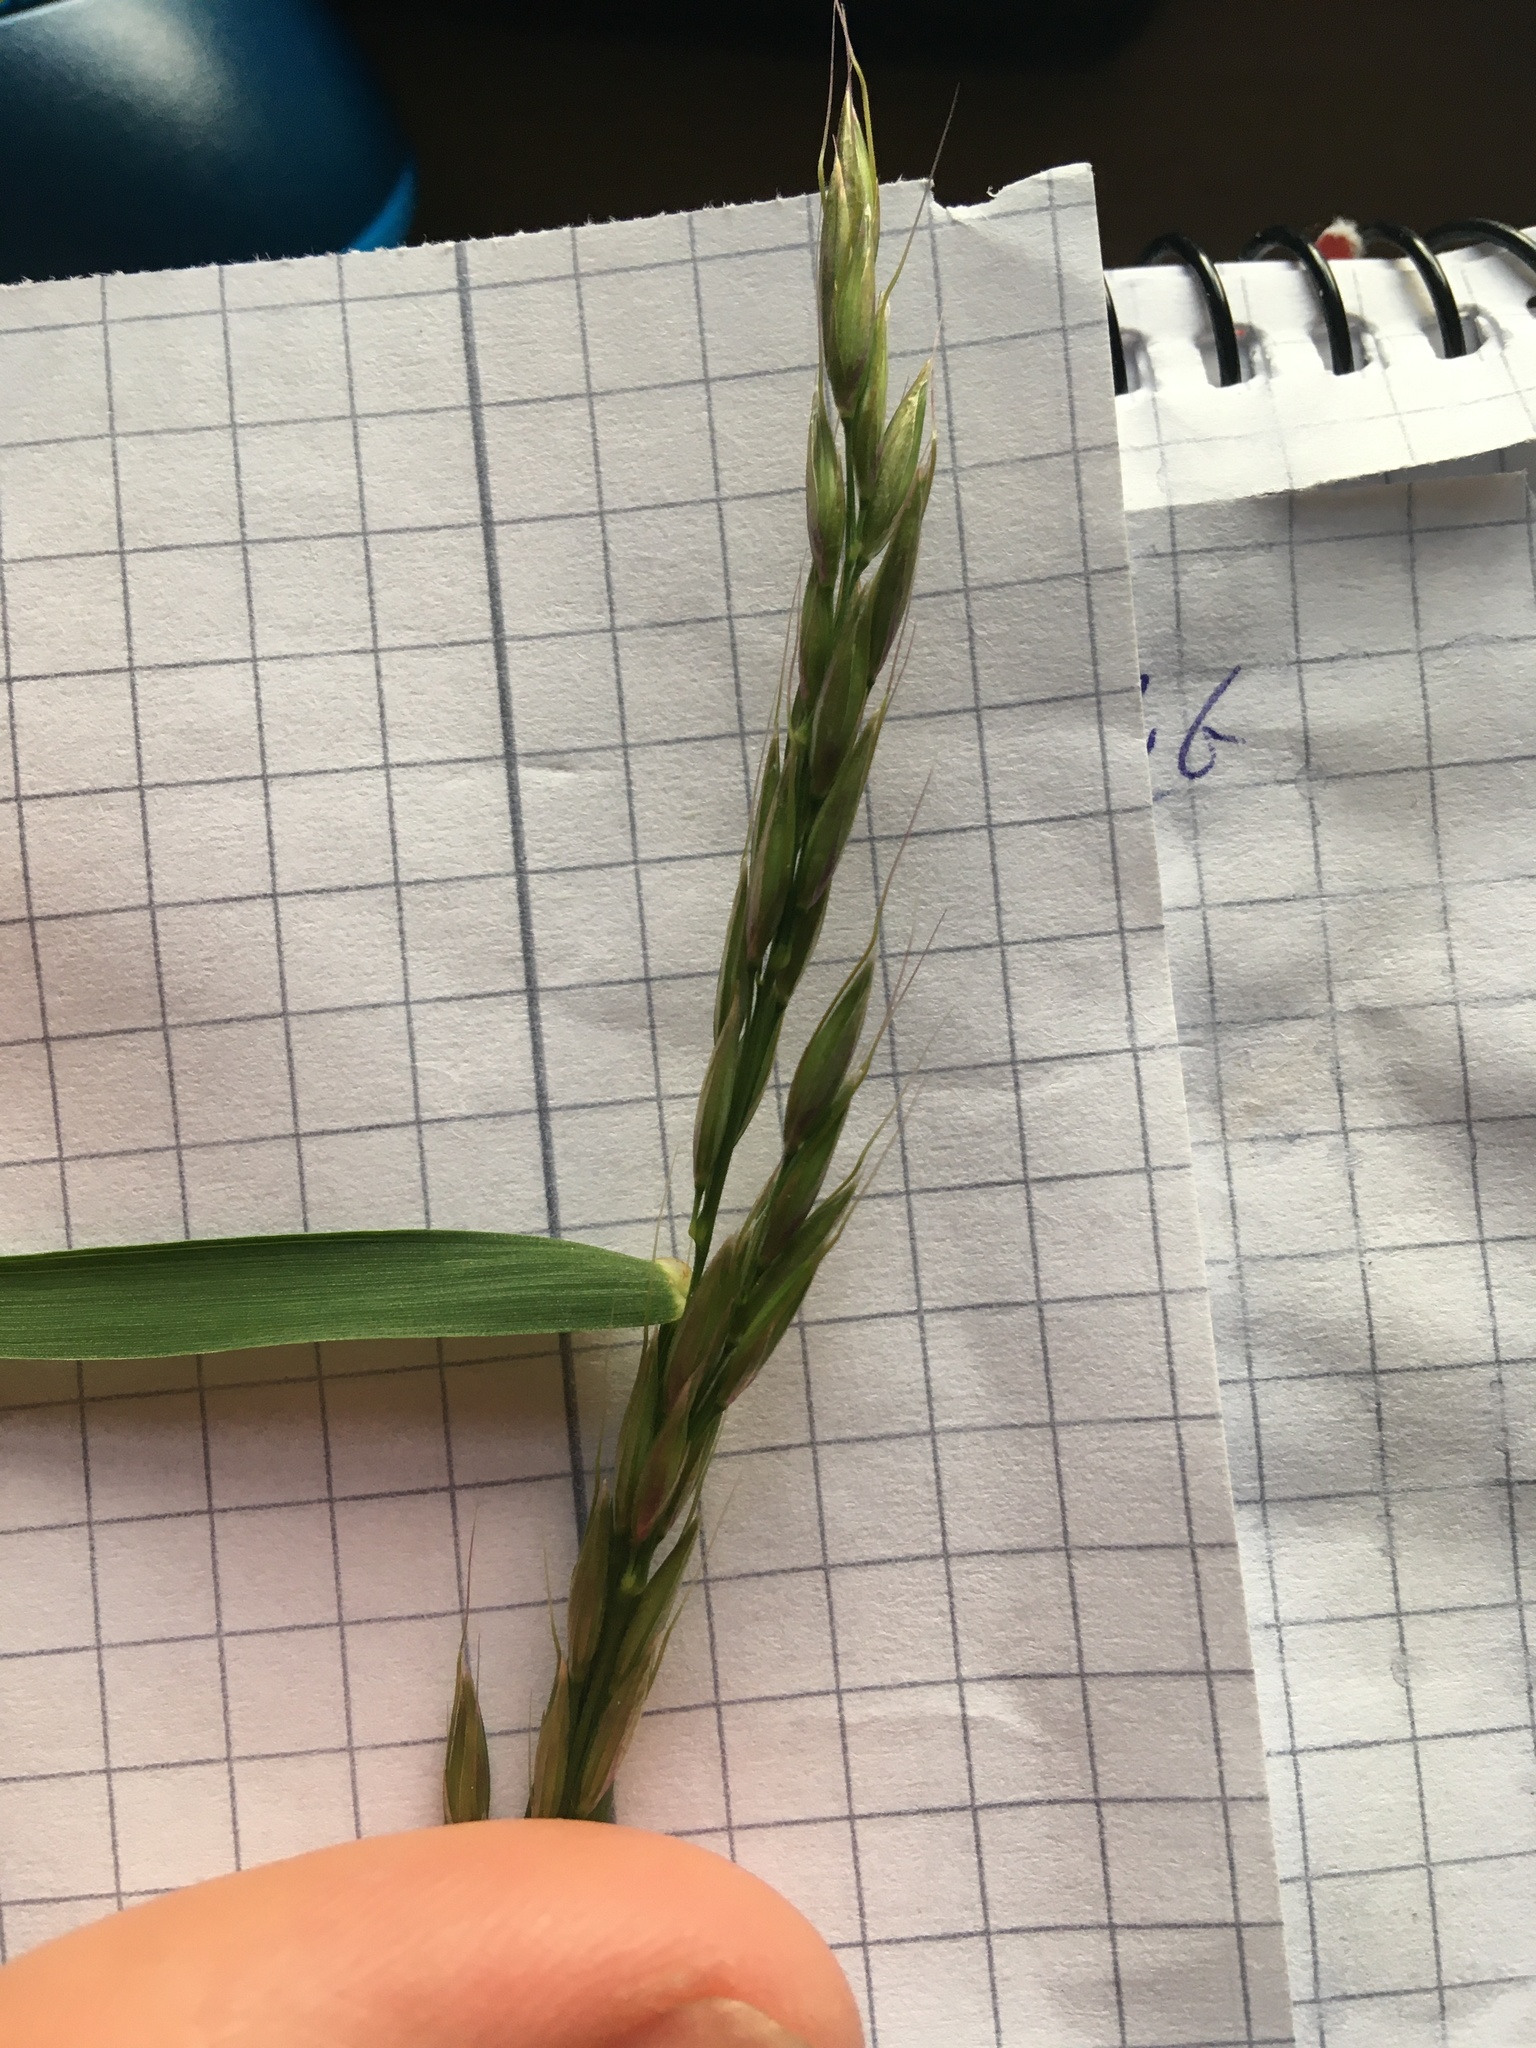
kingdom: Plantae
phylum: Tracheophyta
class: Liliopsida
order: Poales
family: Poaceae
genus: Arrhenatherum
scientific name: Arrhenatherum elatius
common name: Tall oatgrass
